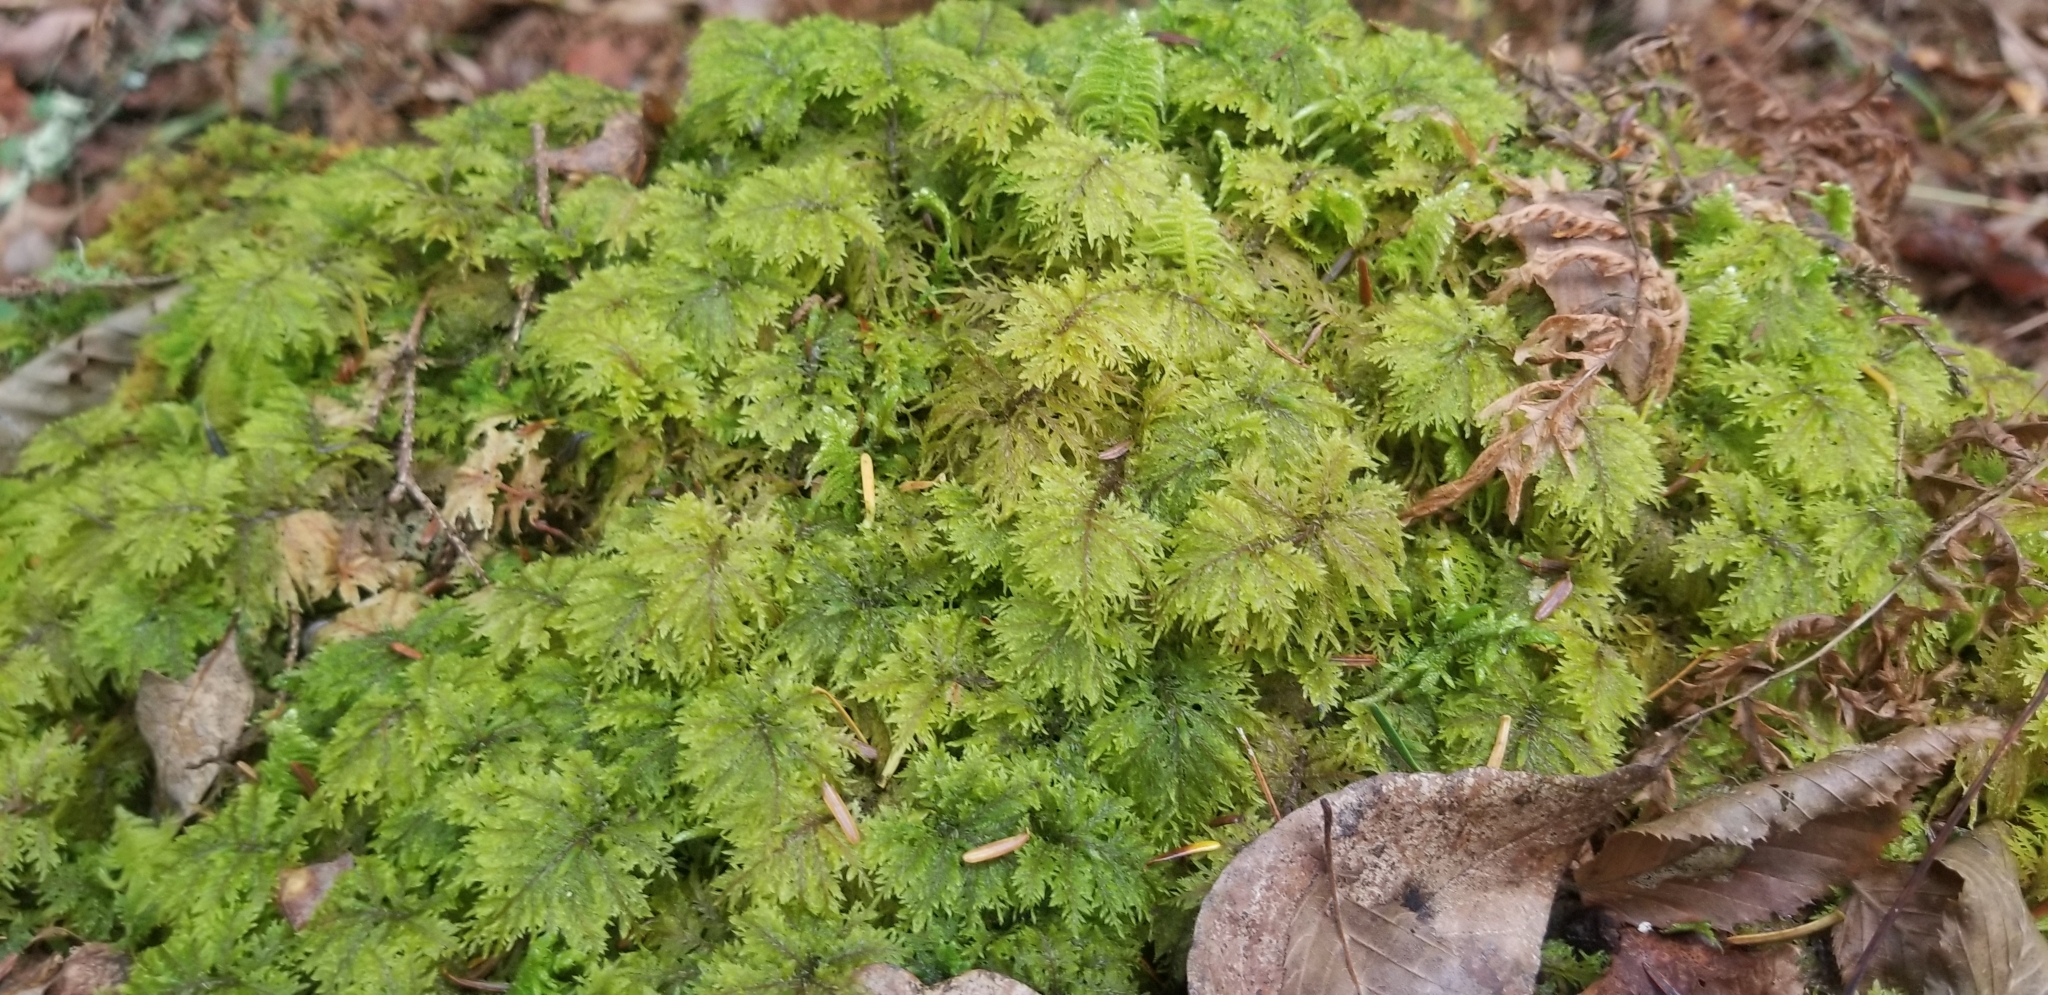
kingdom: Plantae
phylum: Bryophyta
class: Bryopsida
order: Hypnales
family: Hylocomiaceae
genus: Hylocomium
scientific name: Hylocomium splendens
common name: Stairstep moss
